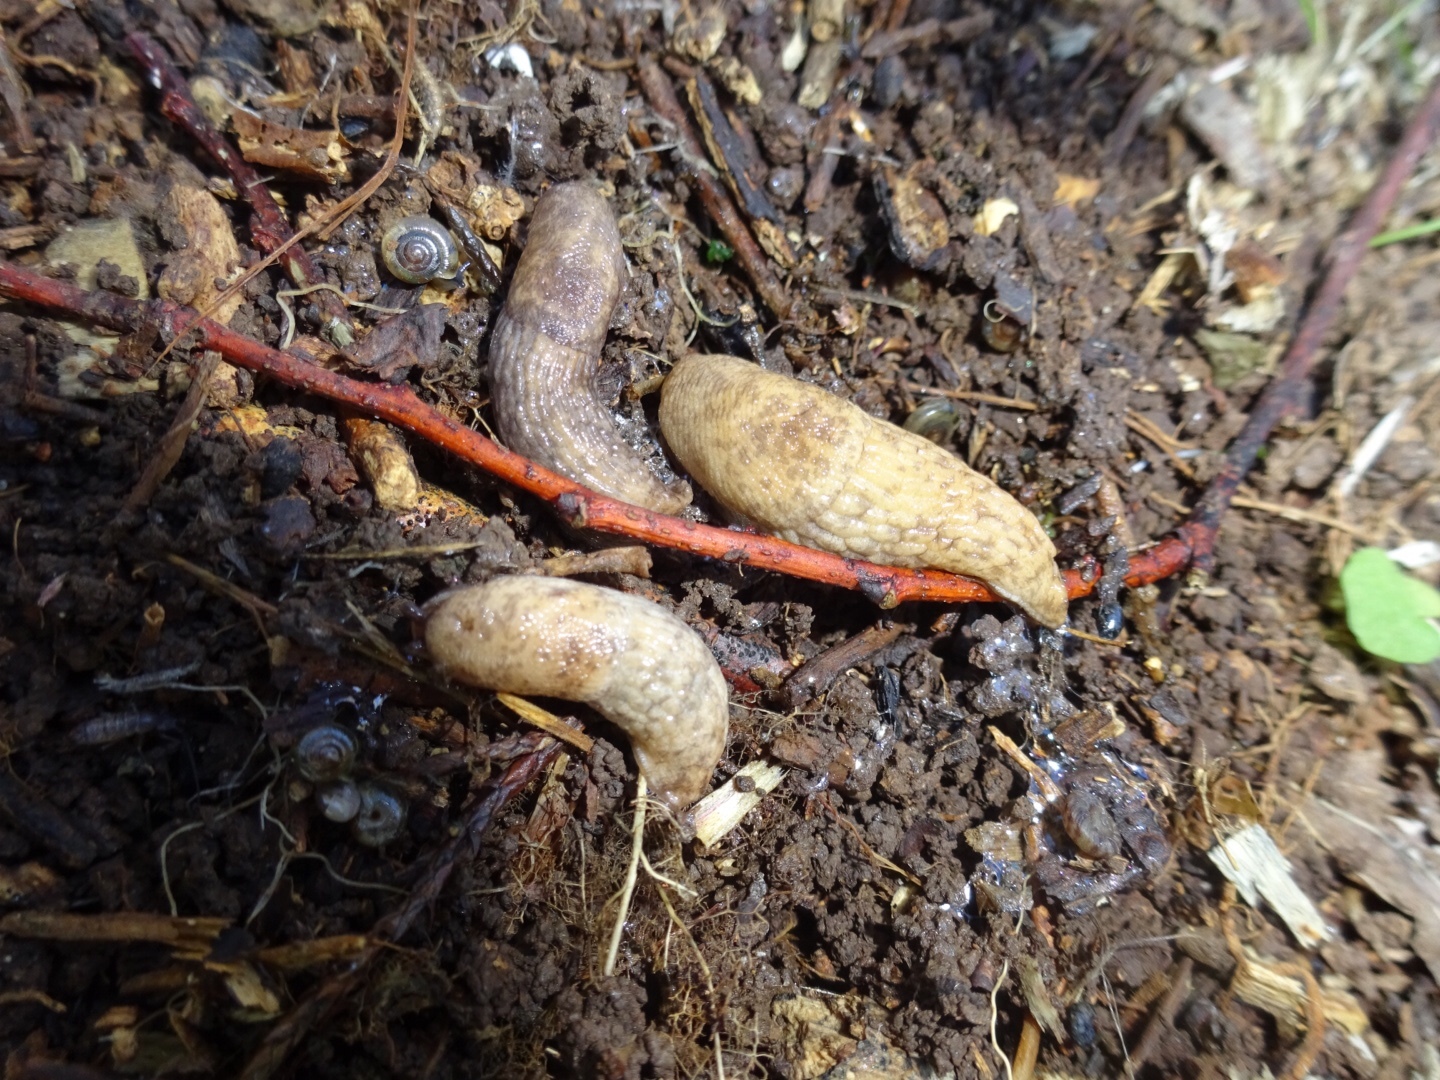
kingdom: Animalia
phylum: Mollusca
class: Gastropoda
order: Stylommatophora
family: Agriolimacidae
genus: Deroceras
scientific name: Deroceras reticulatum
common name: Gray field slug
